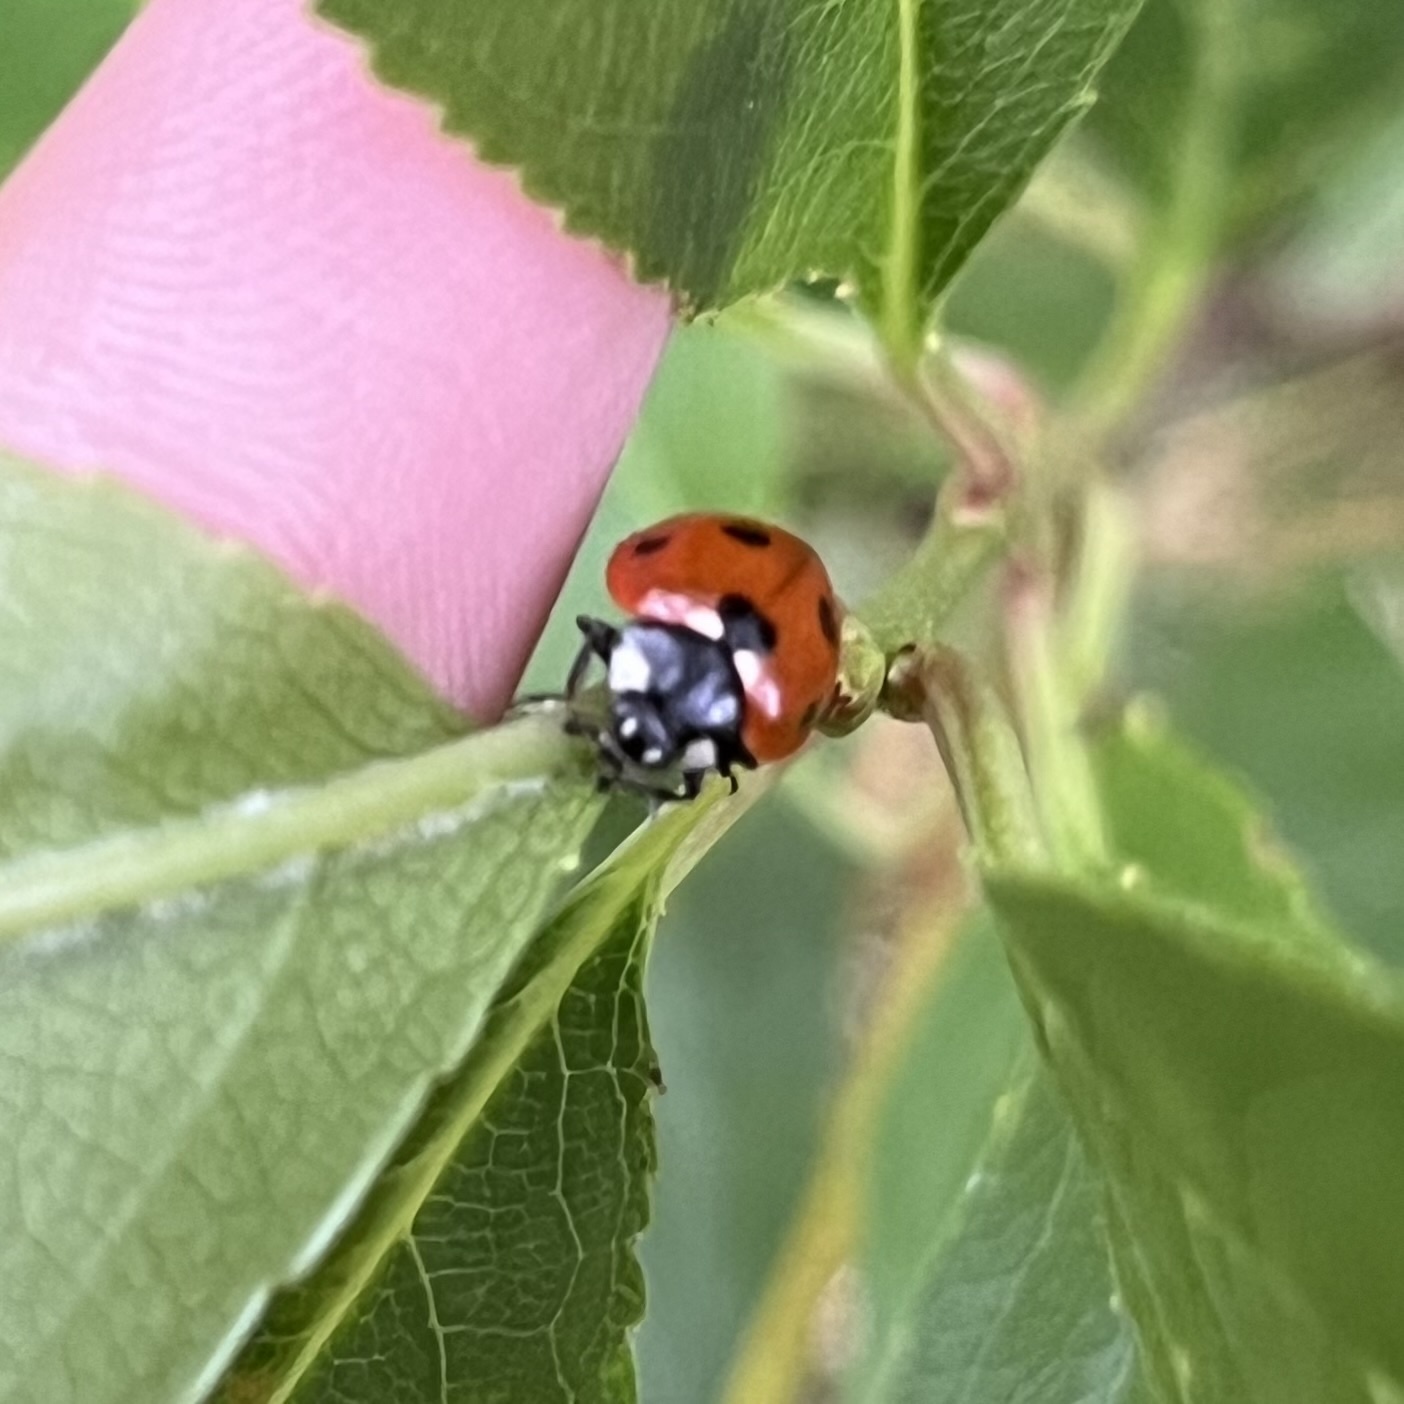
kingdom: Animalia
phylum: Arthropoda
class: Insecta
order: Coleoptera
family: Coccinellidae
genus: Coccinella
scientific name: Coccinella septempunctata
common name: Sevenspotted lady beetle
